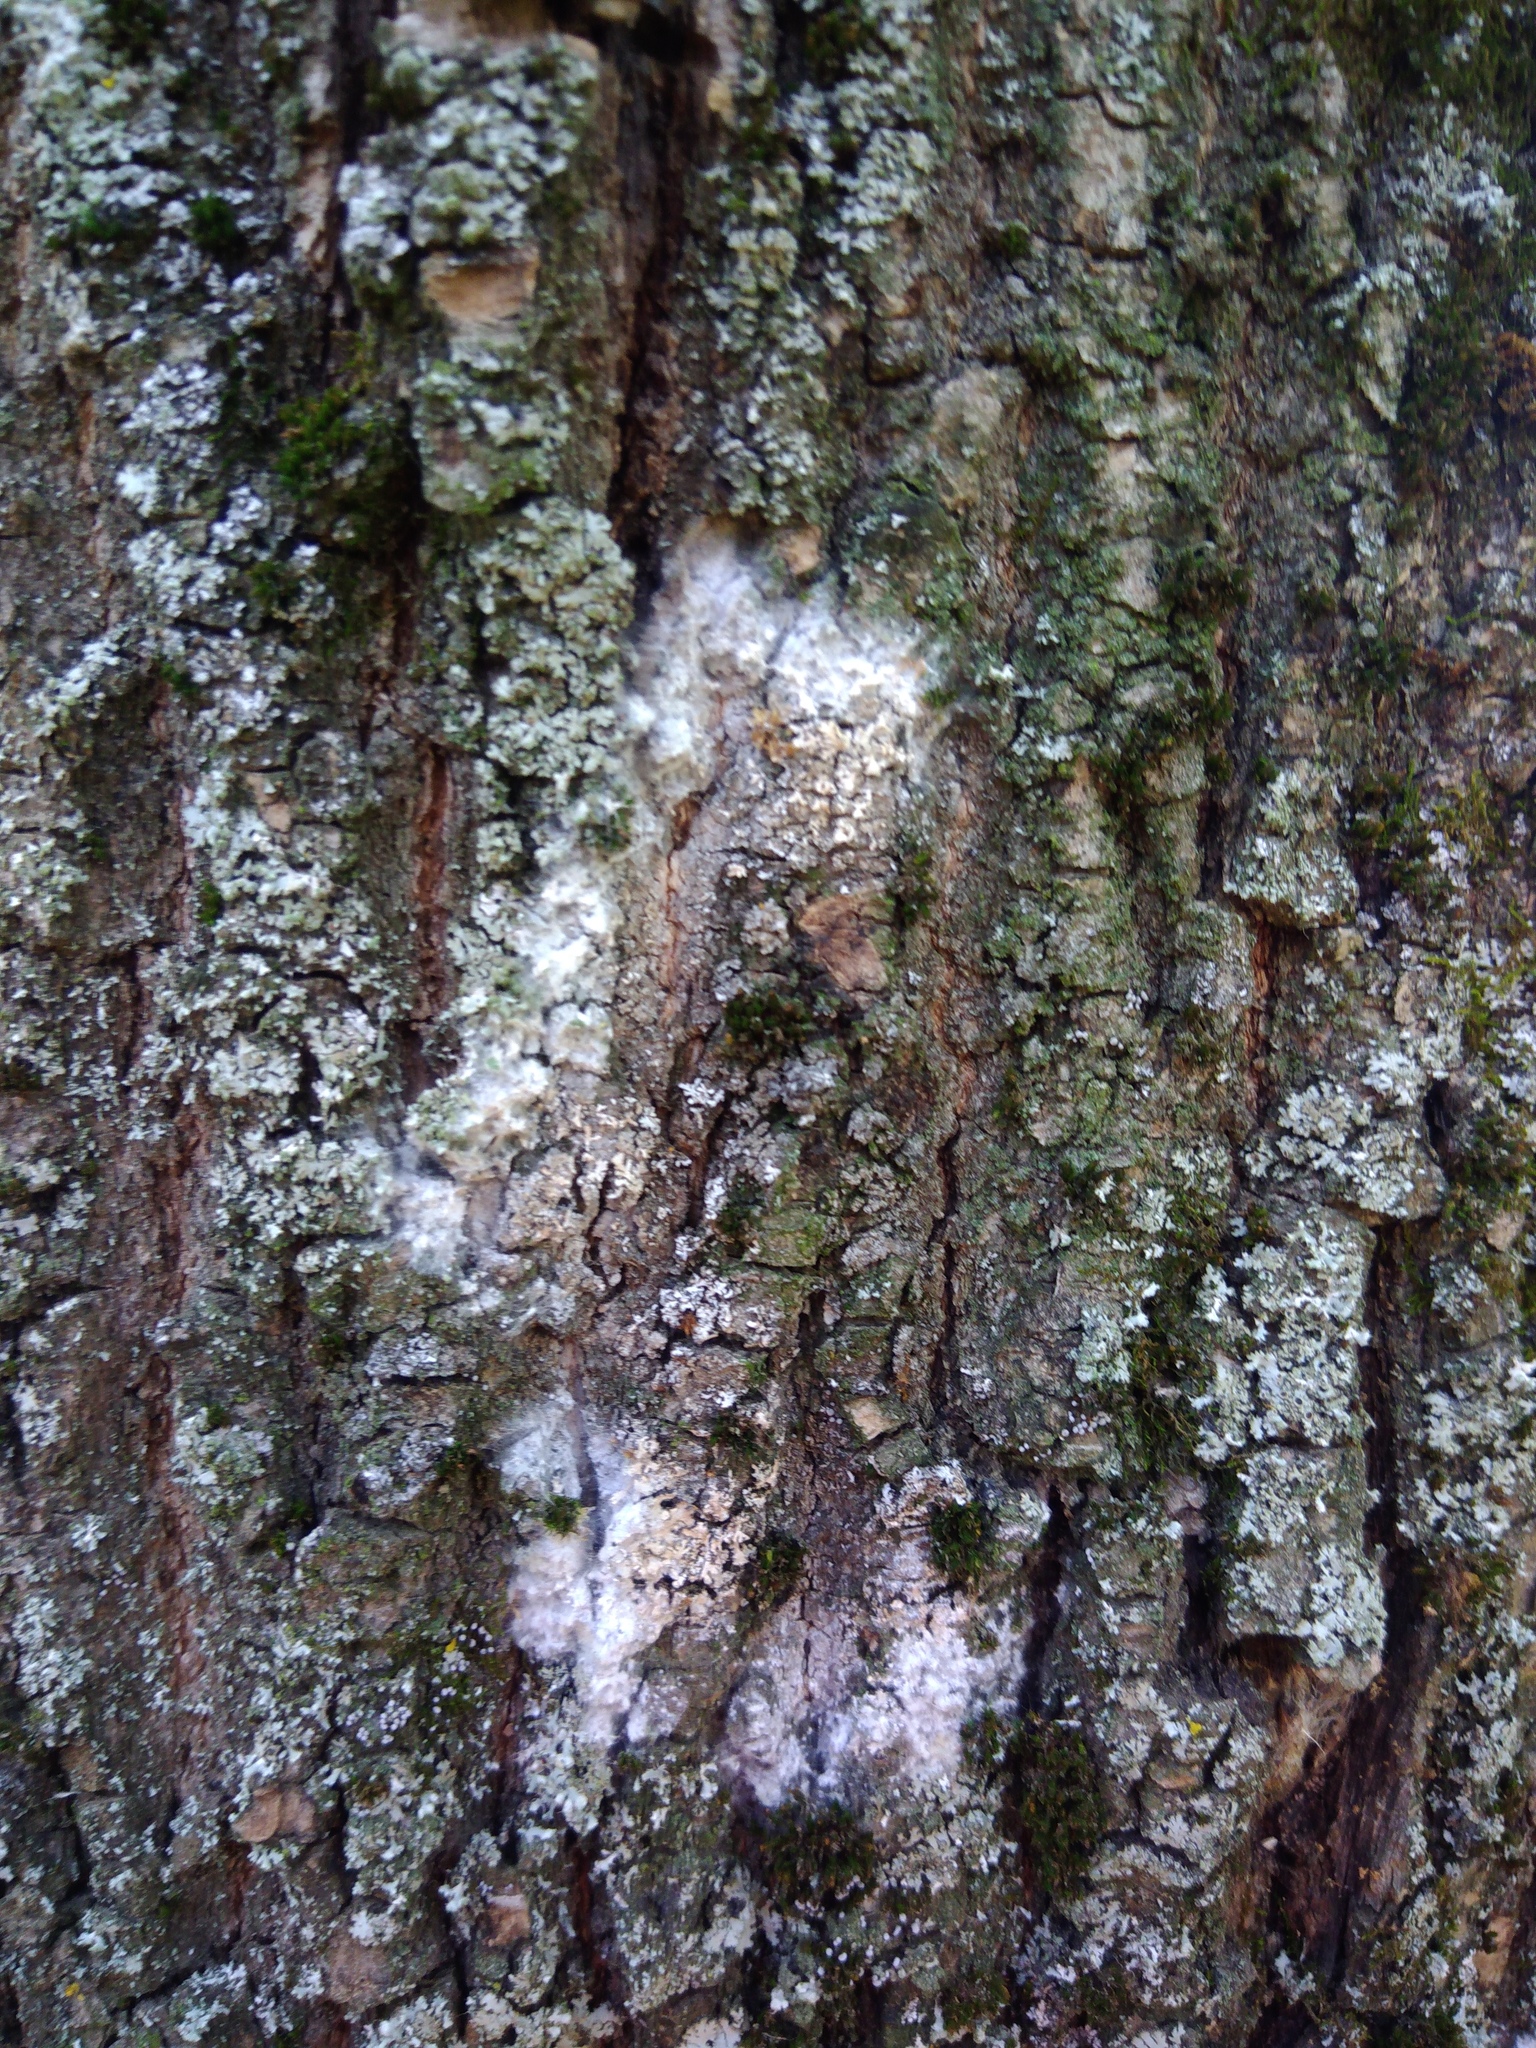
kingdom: Fungi
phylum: Basidiomycota
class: Agaricomycetes
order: Atheliales
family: Atheliaceae
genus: Athelia
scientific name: Athelia arachnoidea
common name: Candelabra duster
